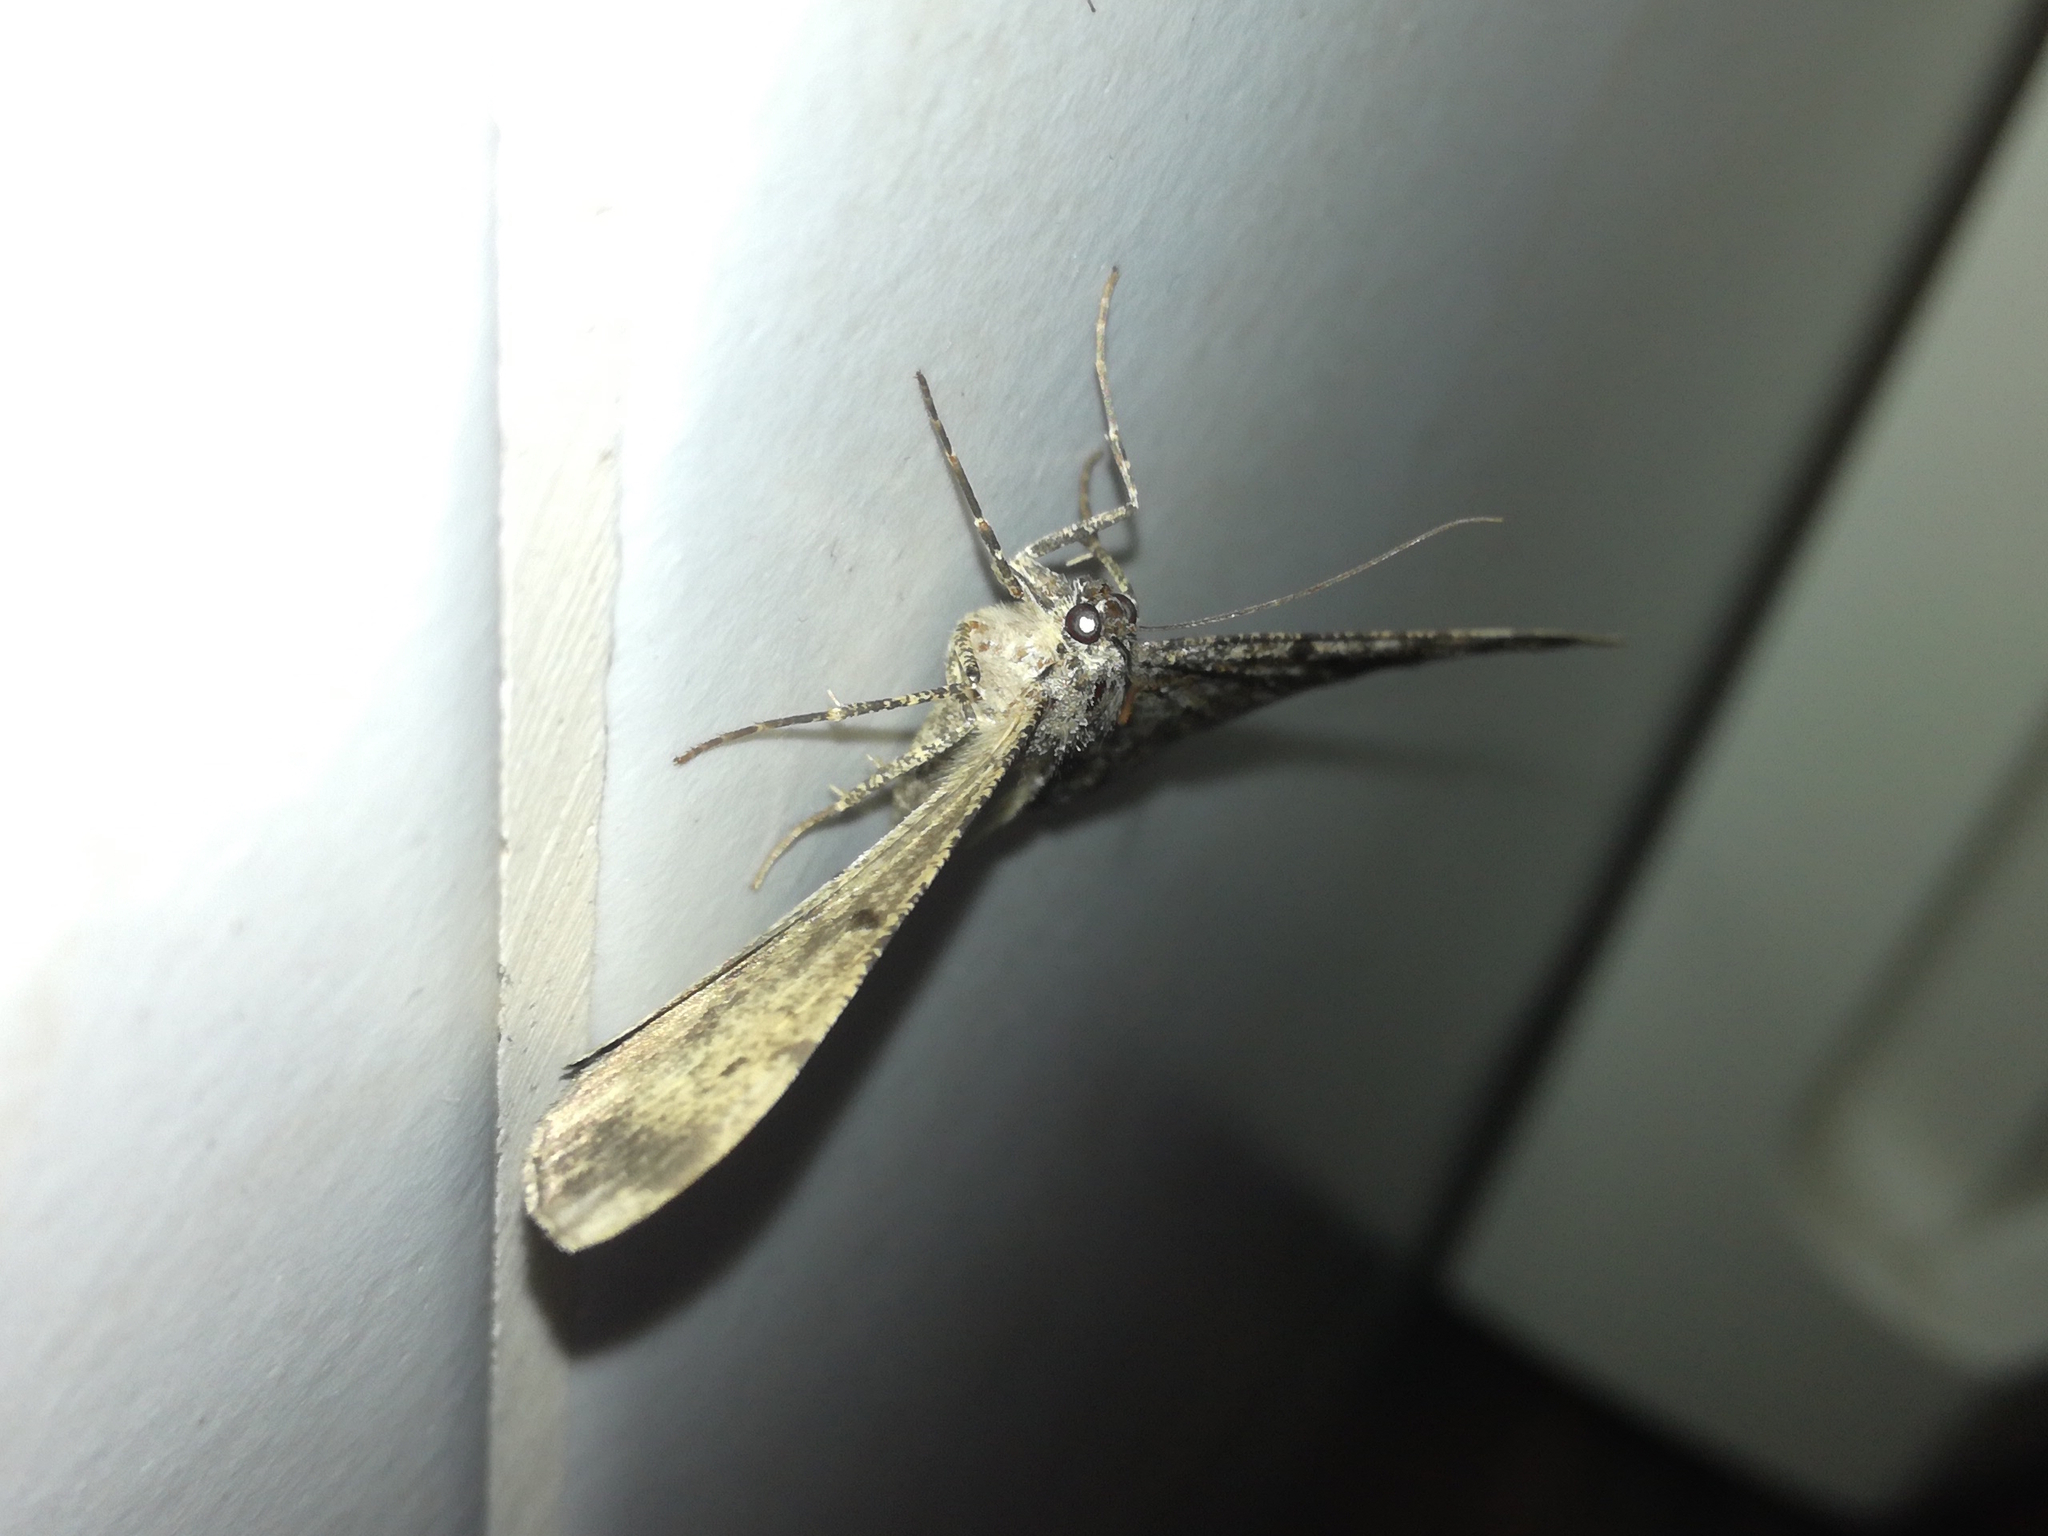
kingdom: Animalia
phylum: Arthropoda
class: Insecta
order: Lepidoptera
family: Geometridae
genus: Peribatodes
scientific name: Peribatodes rhomboidaria
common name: Willow beauty
